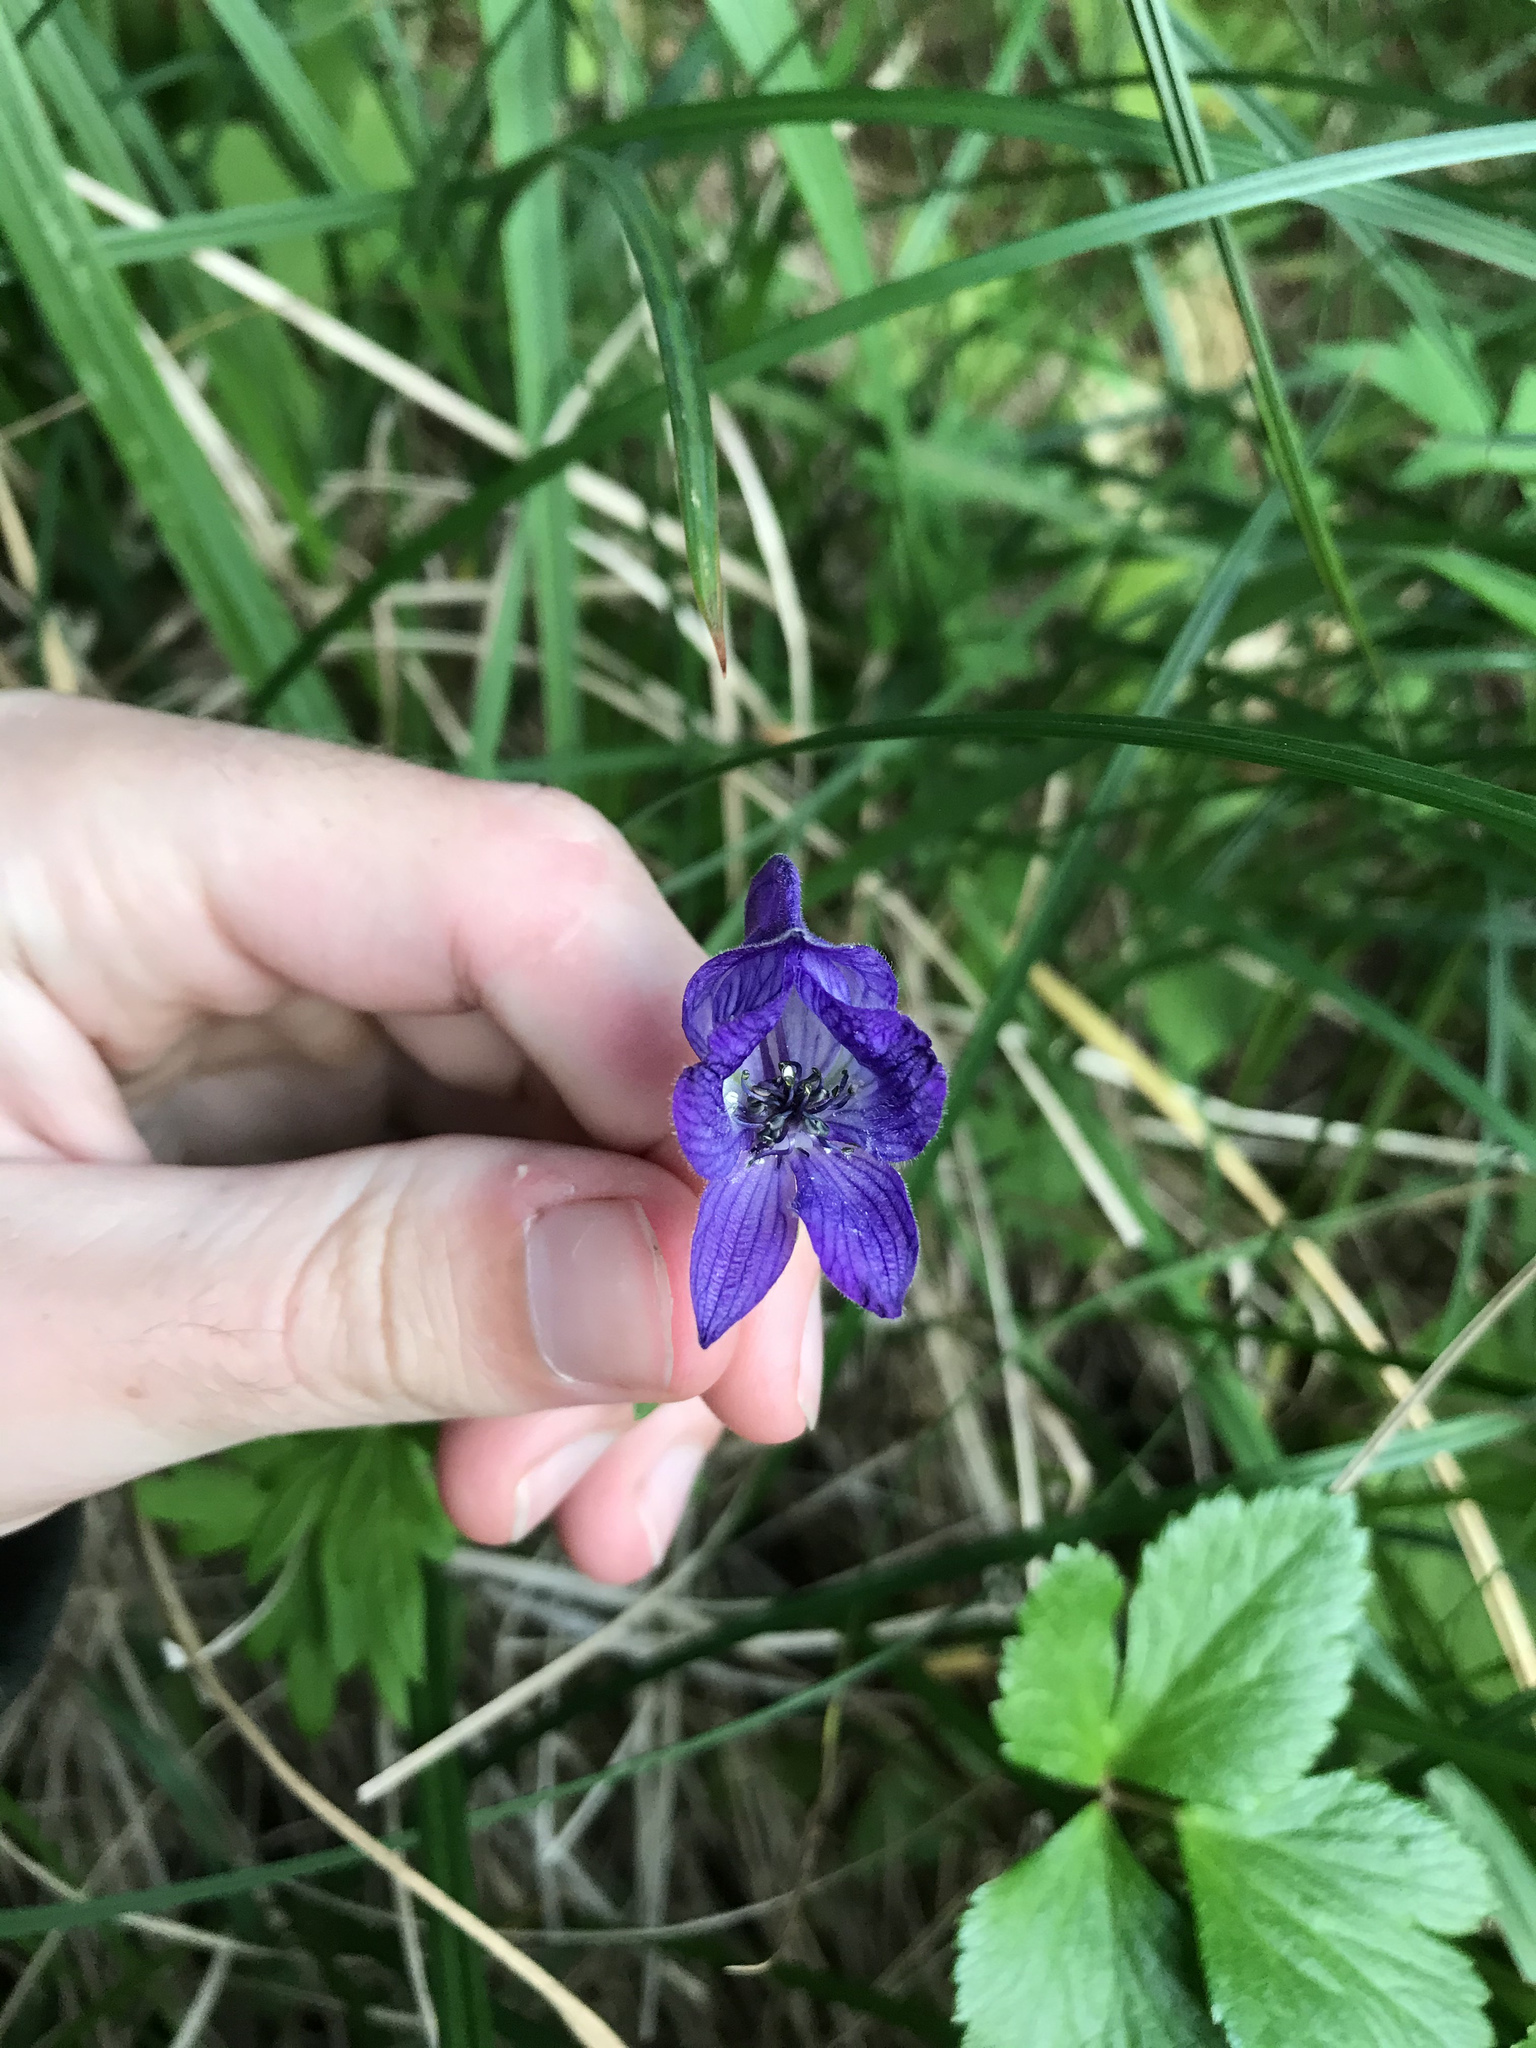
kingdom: Plantae
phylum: Tracheophyta
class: Magnoliopsida
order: Ranunculales
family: Ranunculaceae
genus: Aconitum
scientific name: Aconitum delphiniifolium
